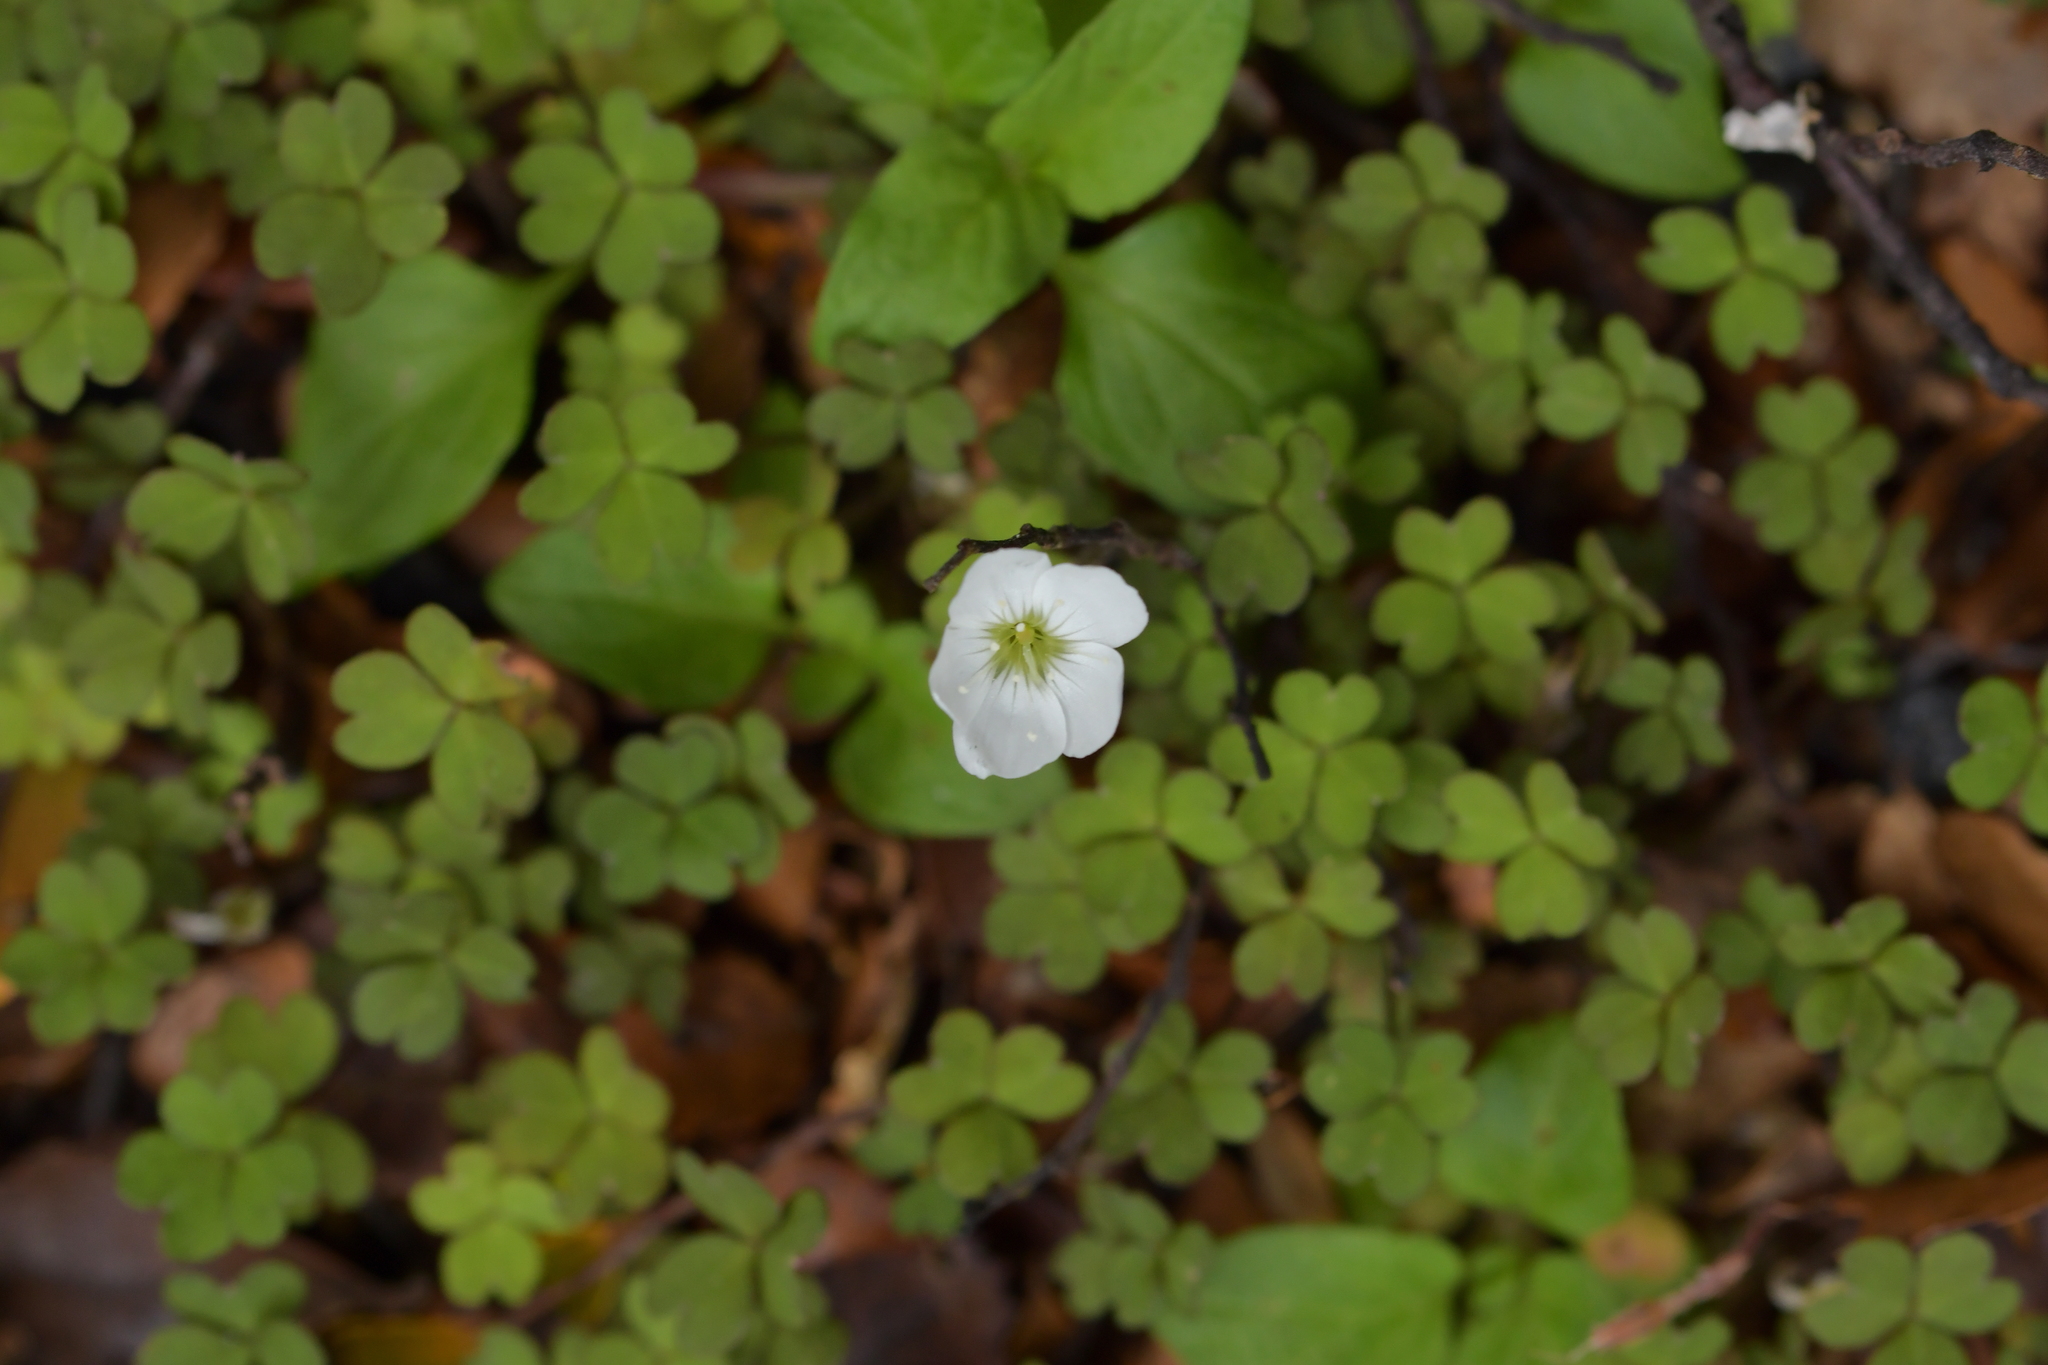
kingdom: Plantae
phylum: Tracheophyta
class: Magnoliopsida
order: Oxalidales
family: Oxalidaceae
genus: Oxalis
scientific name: Oxalis magellanica
